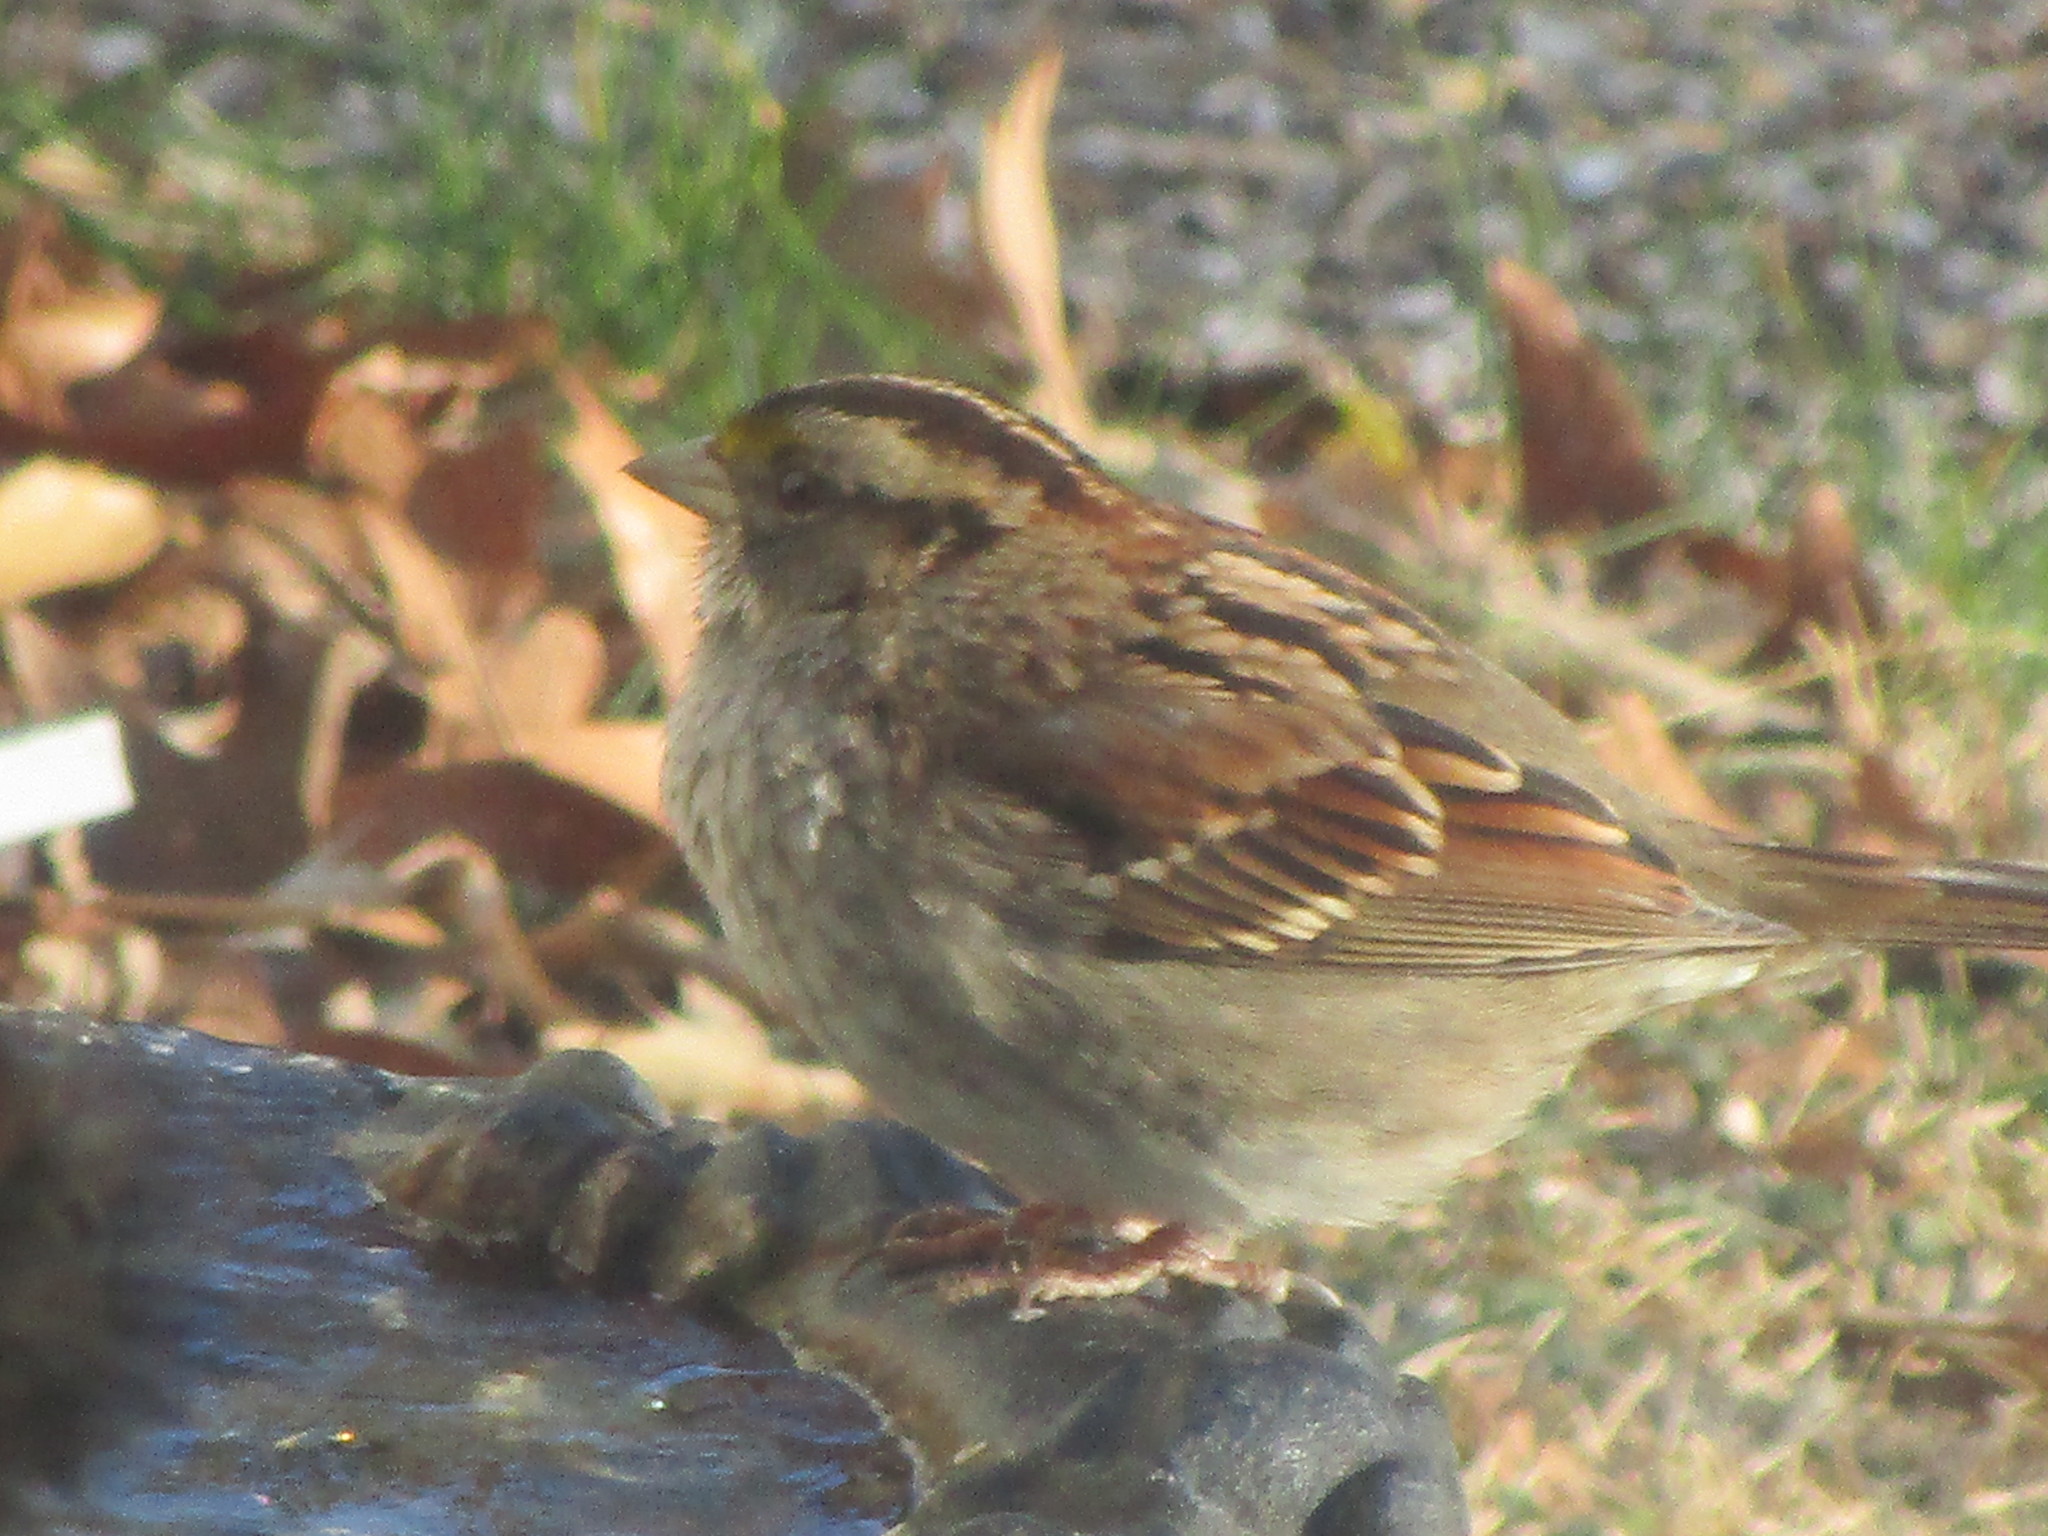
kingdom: Animalia
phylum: Chordata
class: Aves
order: Passeriformes
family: Passerellidae
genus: Zonotrichia
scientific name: Zonotrichia albicollis
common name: White-throated sparrow
